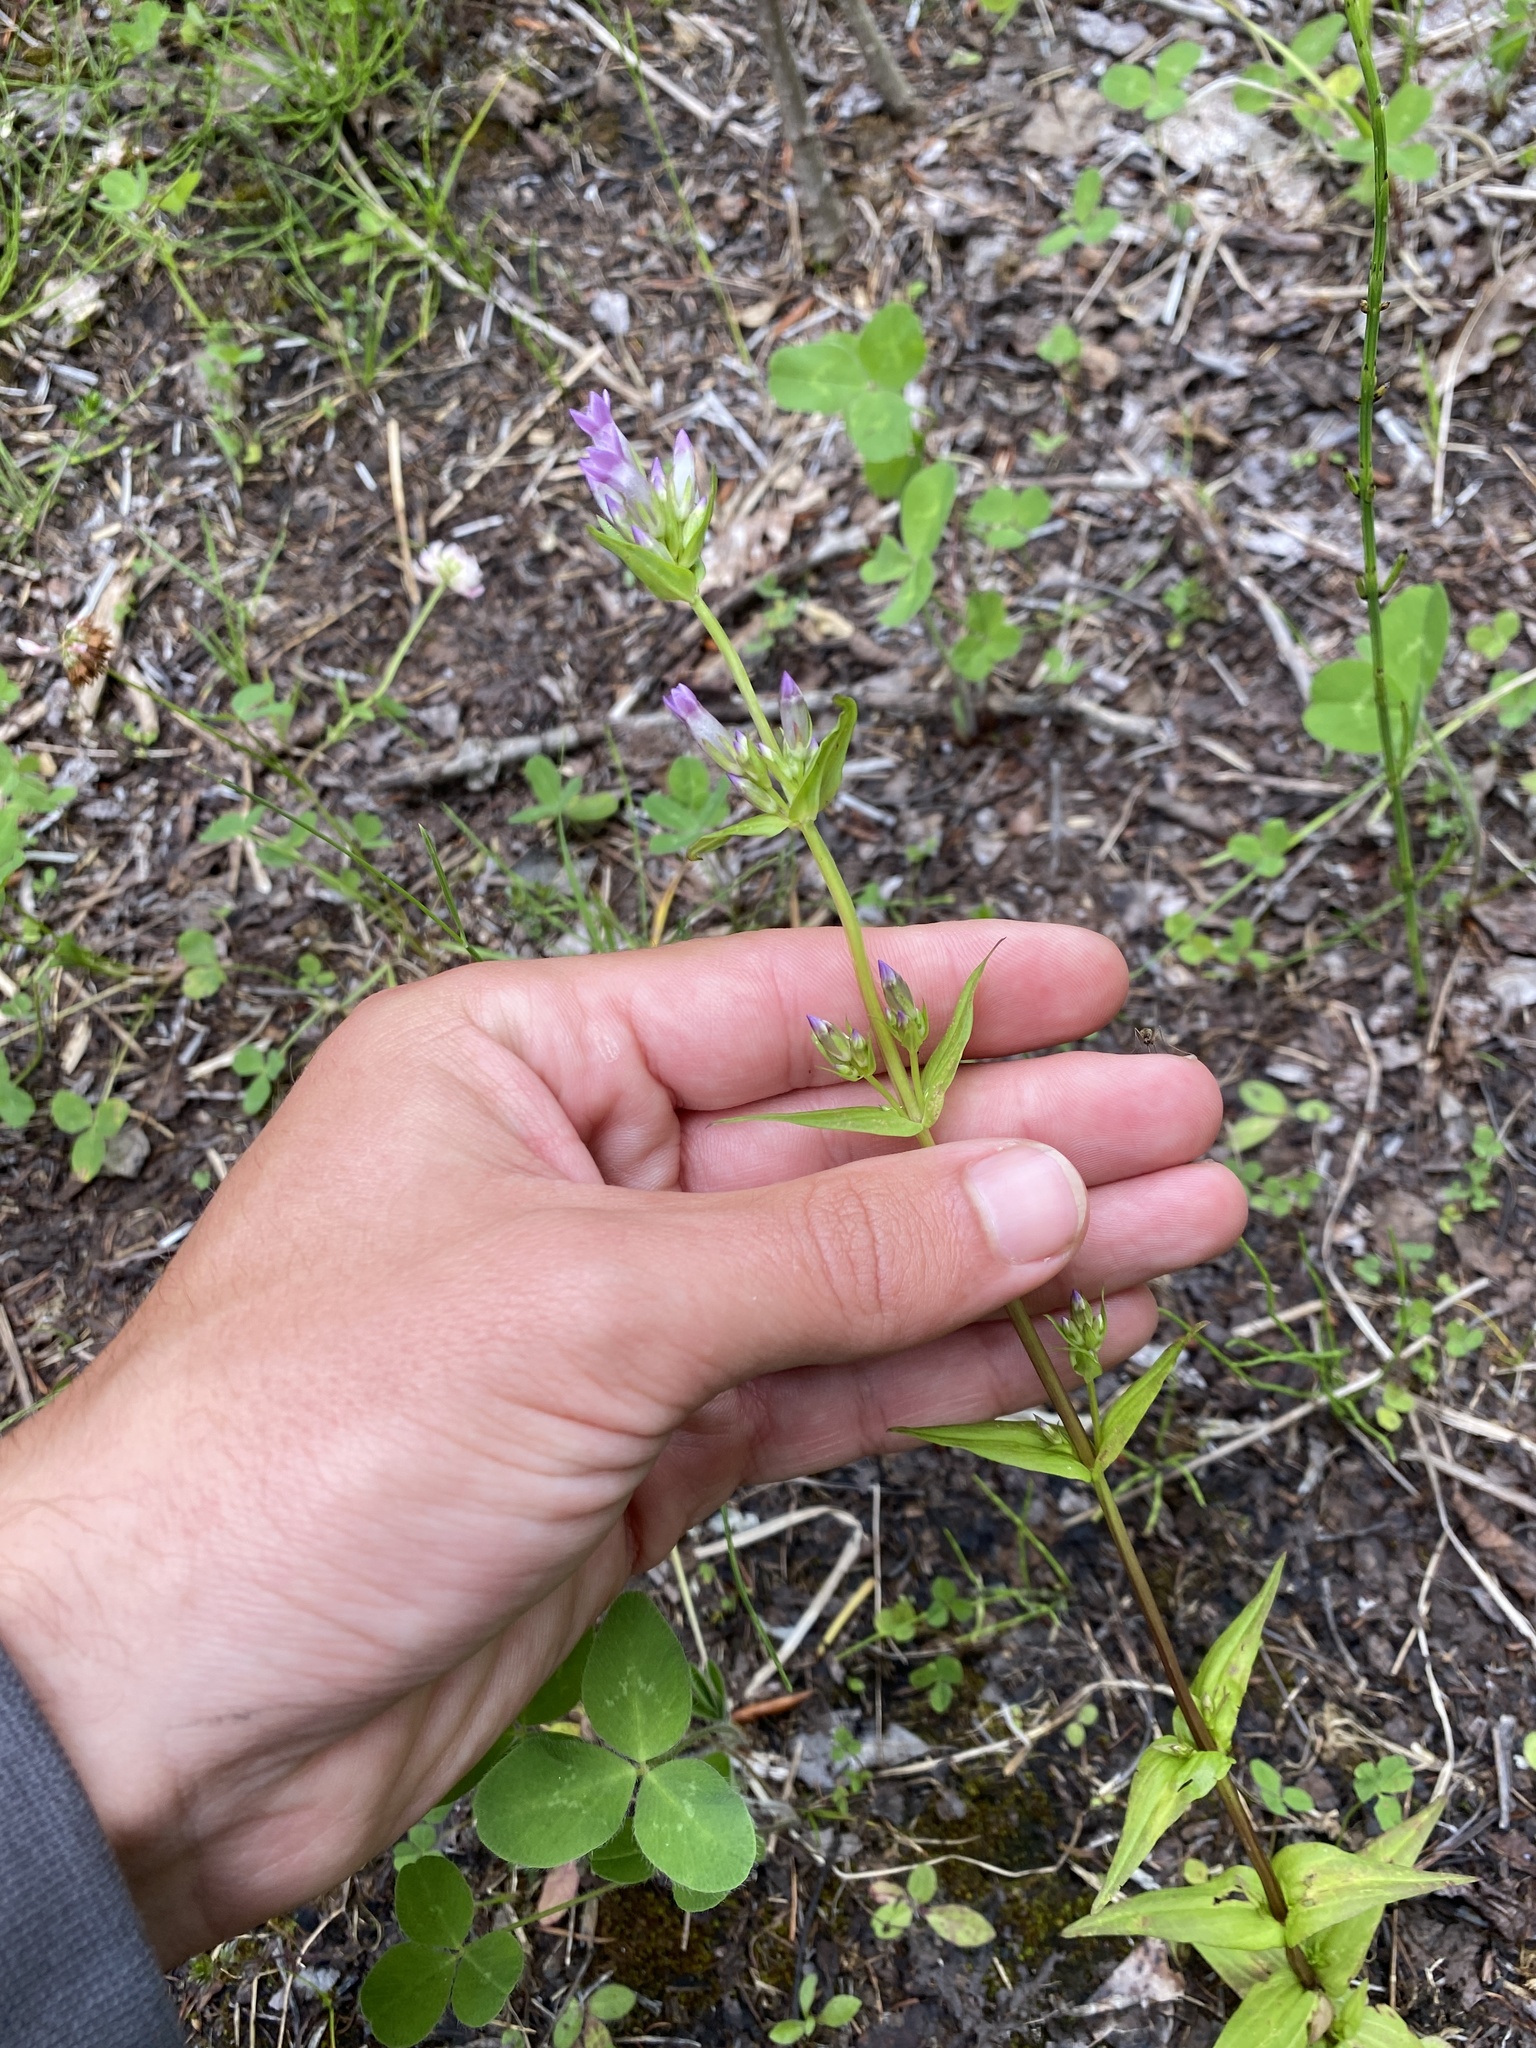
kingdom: Plantae
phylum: Tracheophyta
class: Magnoliopsida
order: Gentianales
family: Gentianaceae
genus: Gentianella
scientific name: Gentianella amarella
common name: Autumn gentian
